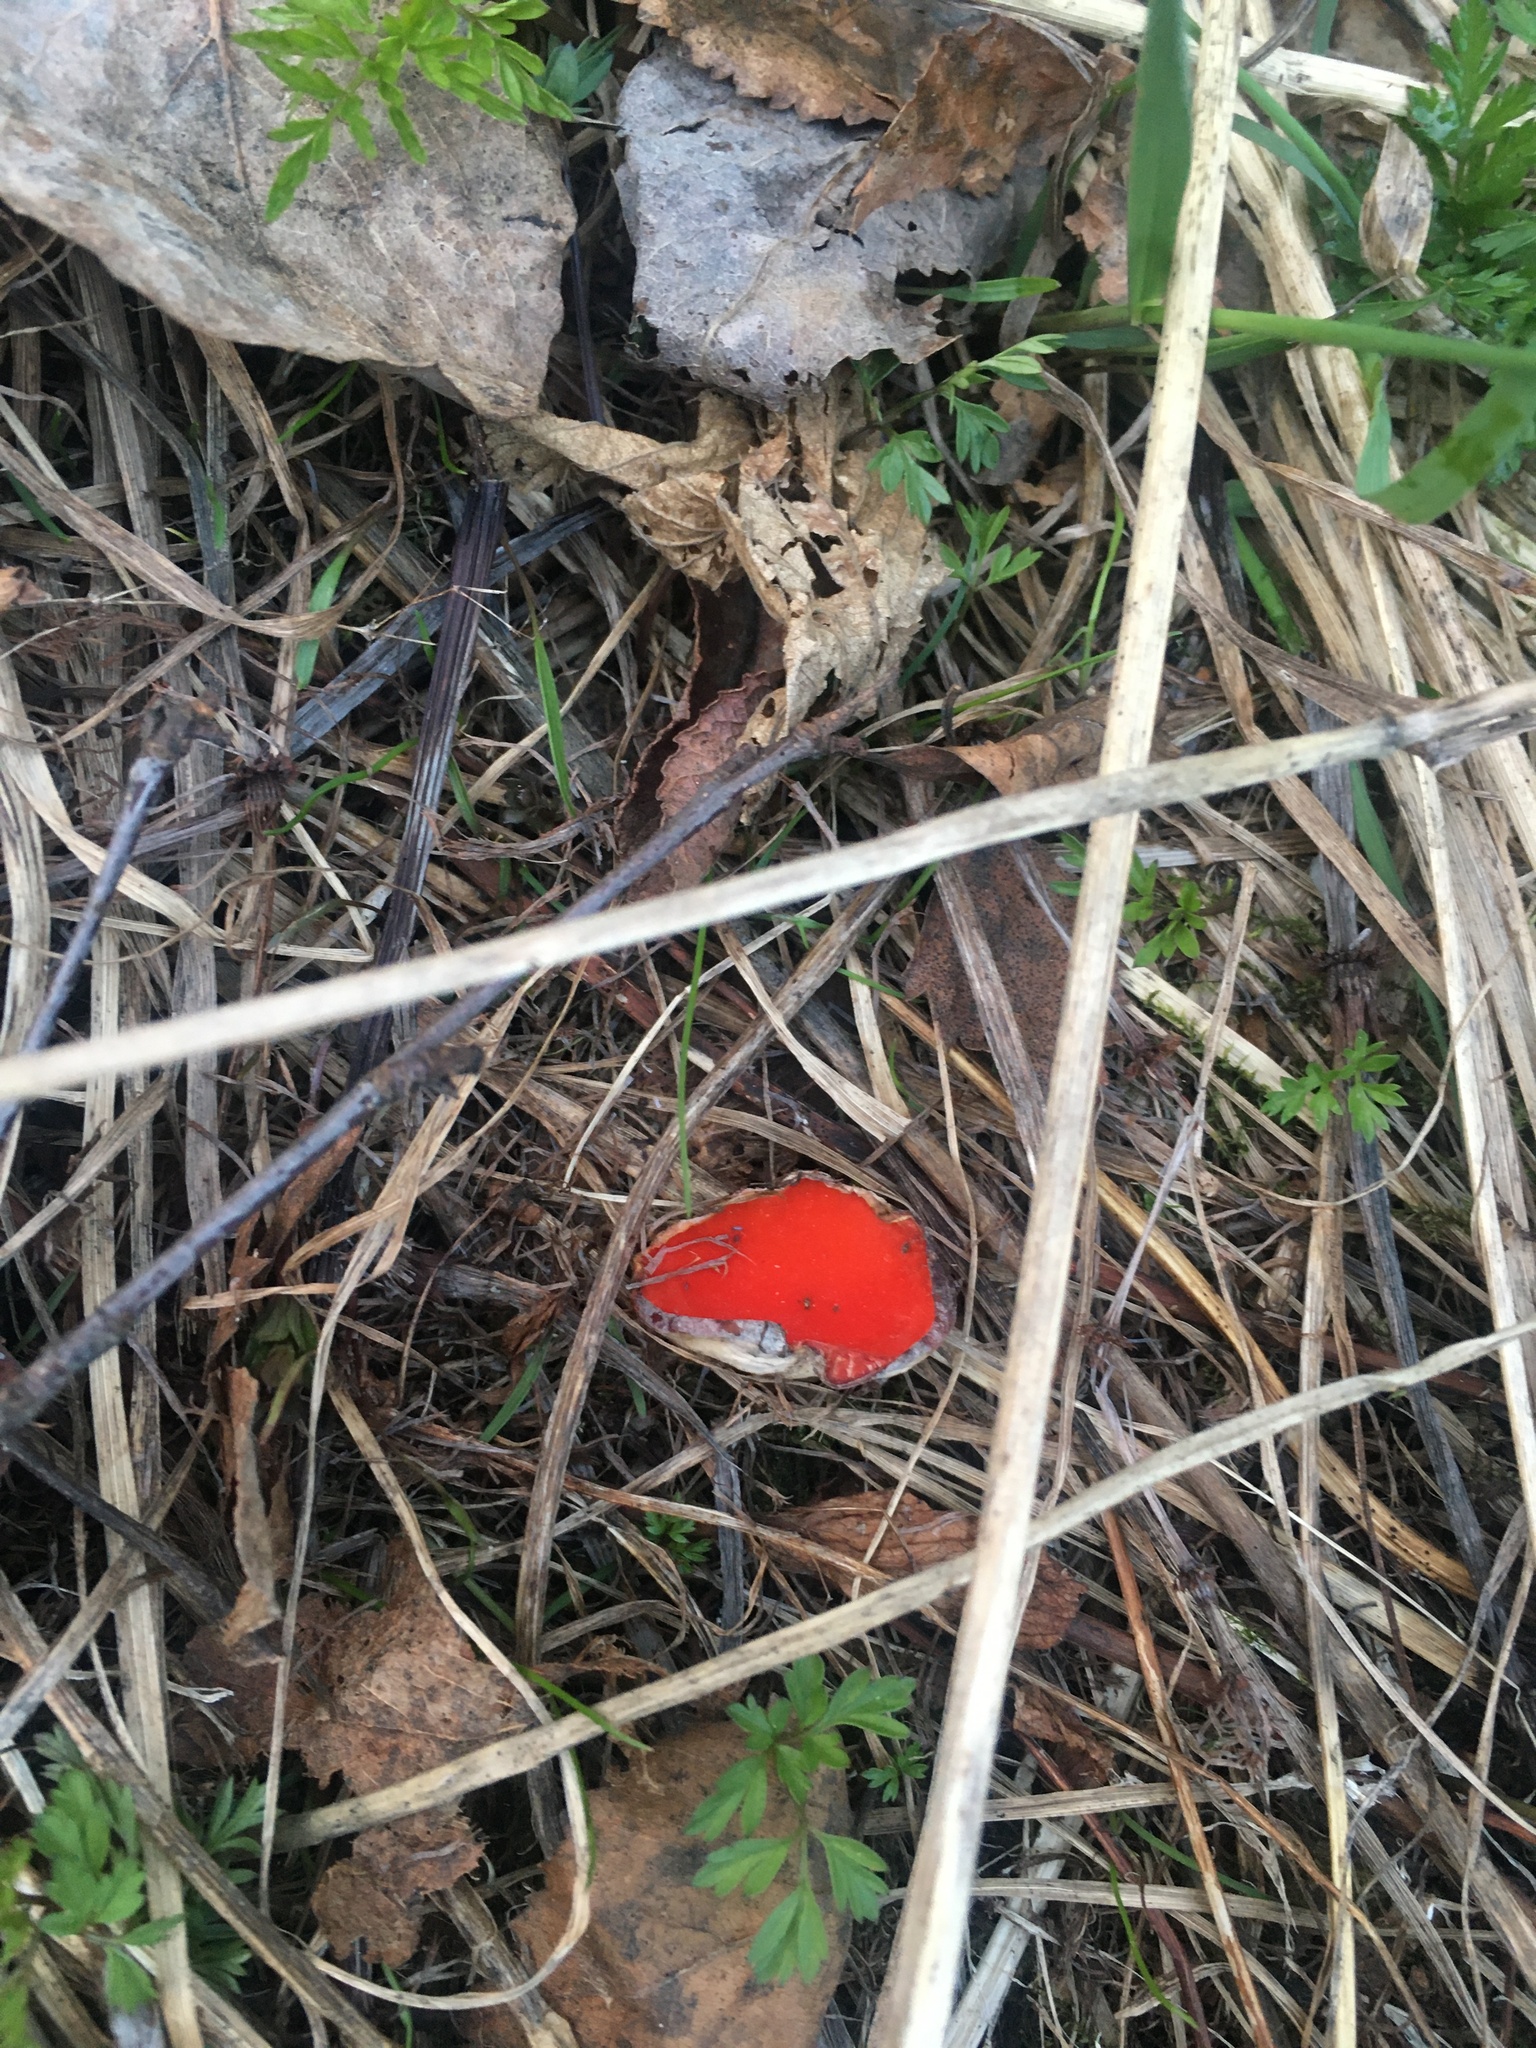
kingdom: Fungi
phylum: Ascomycota
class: Pezizomycetes
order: Pezizales
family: Sarcoscyphaceae
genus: Sarcoscypha
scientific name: Sarcoscypha austriaca
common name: Scarlet elfcup
